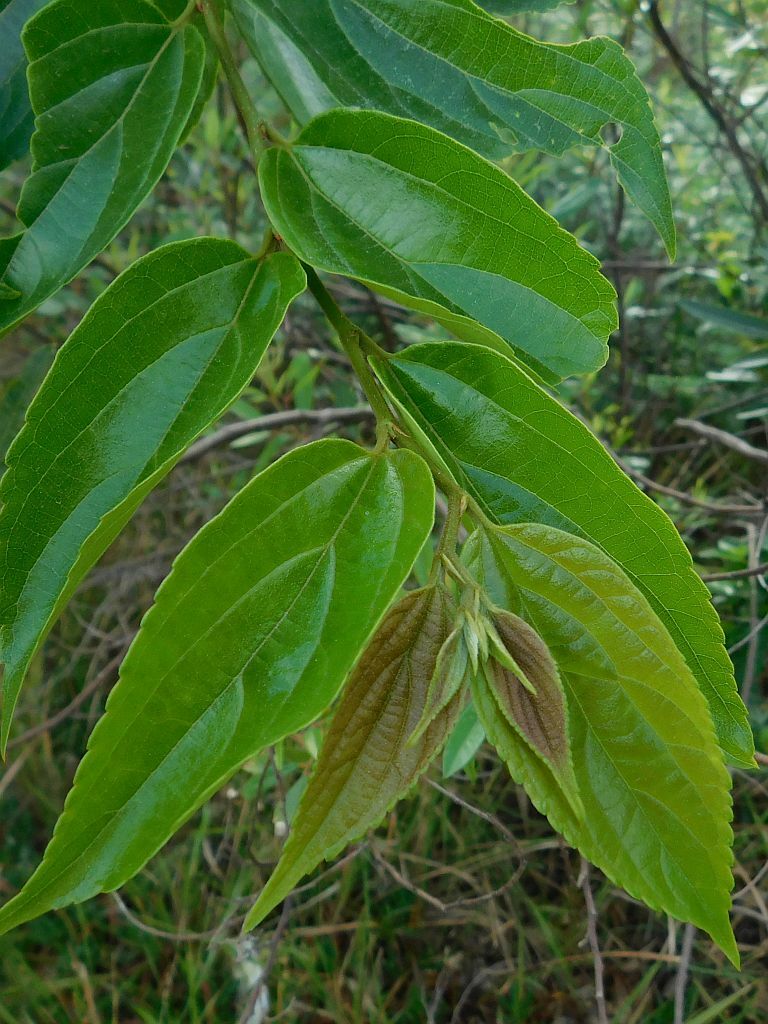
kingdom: Plantae
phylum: Tracheophyta
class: Magnoliopsida
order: Rosales
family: Cannabaceae
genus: Celtis
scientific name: Celtis sinensis
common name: Chinese hackberry
